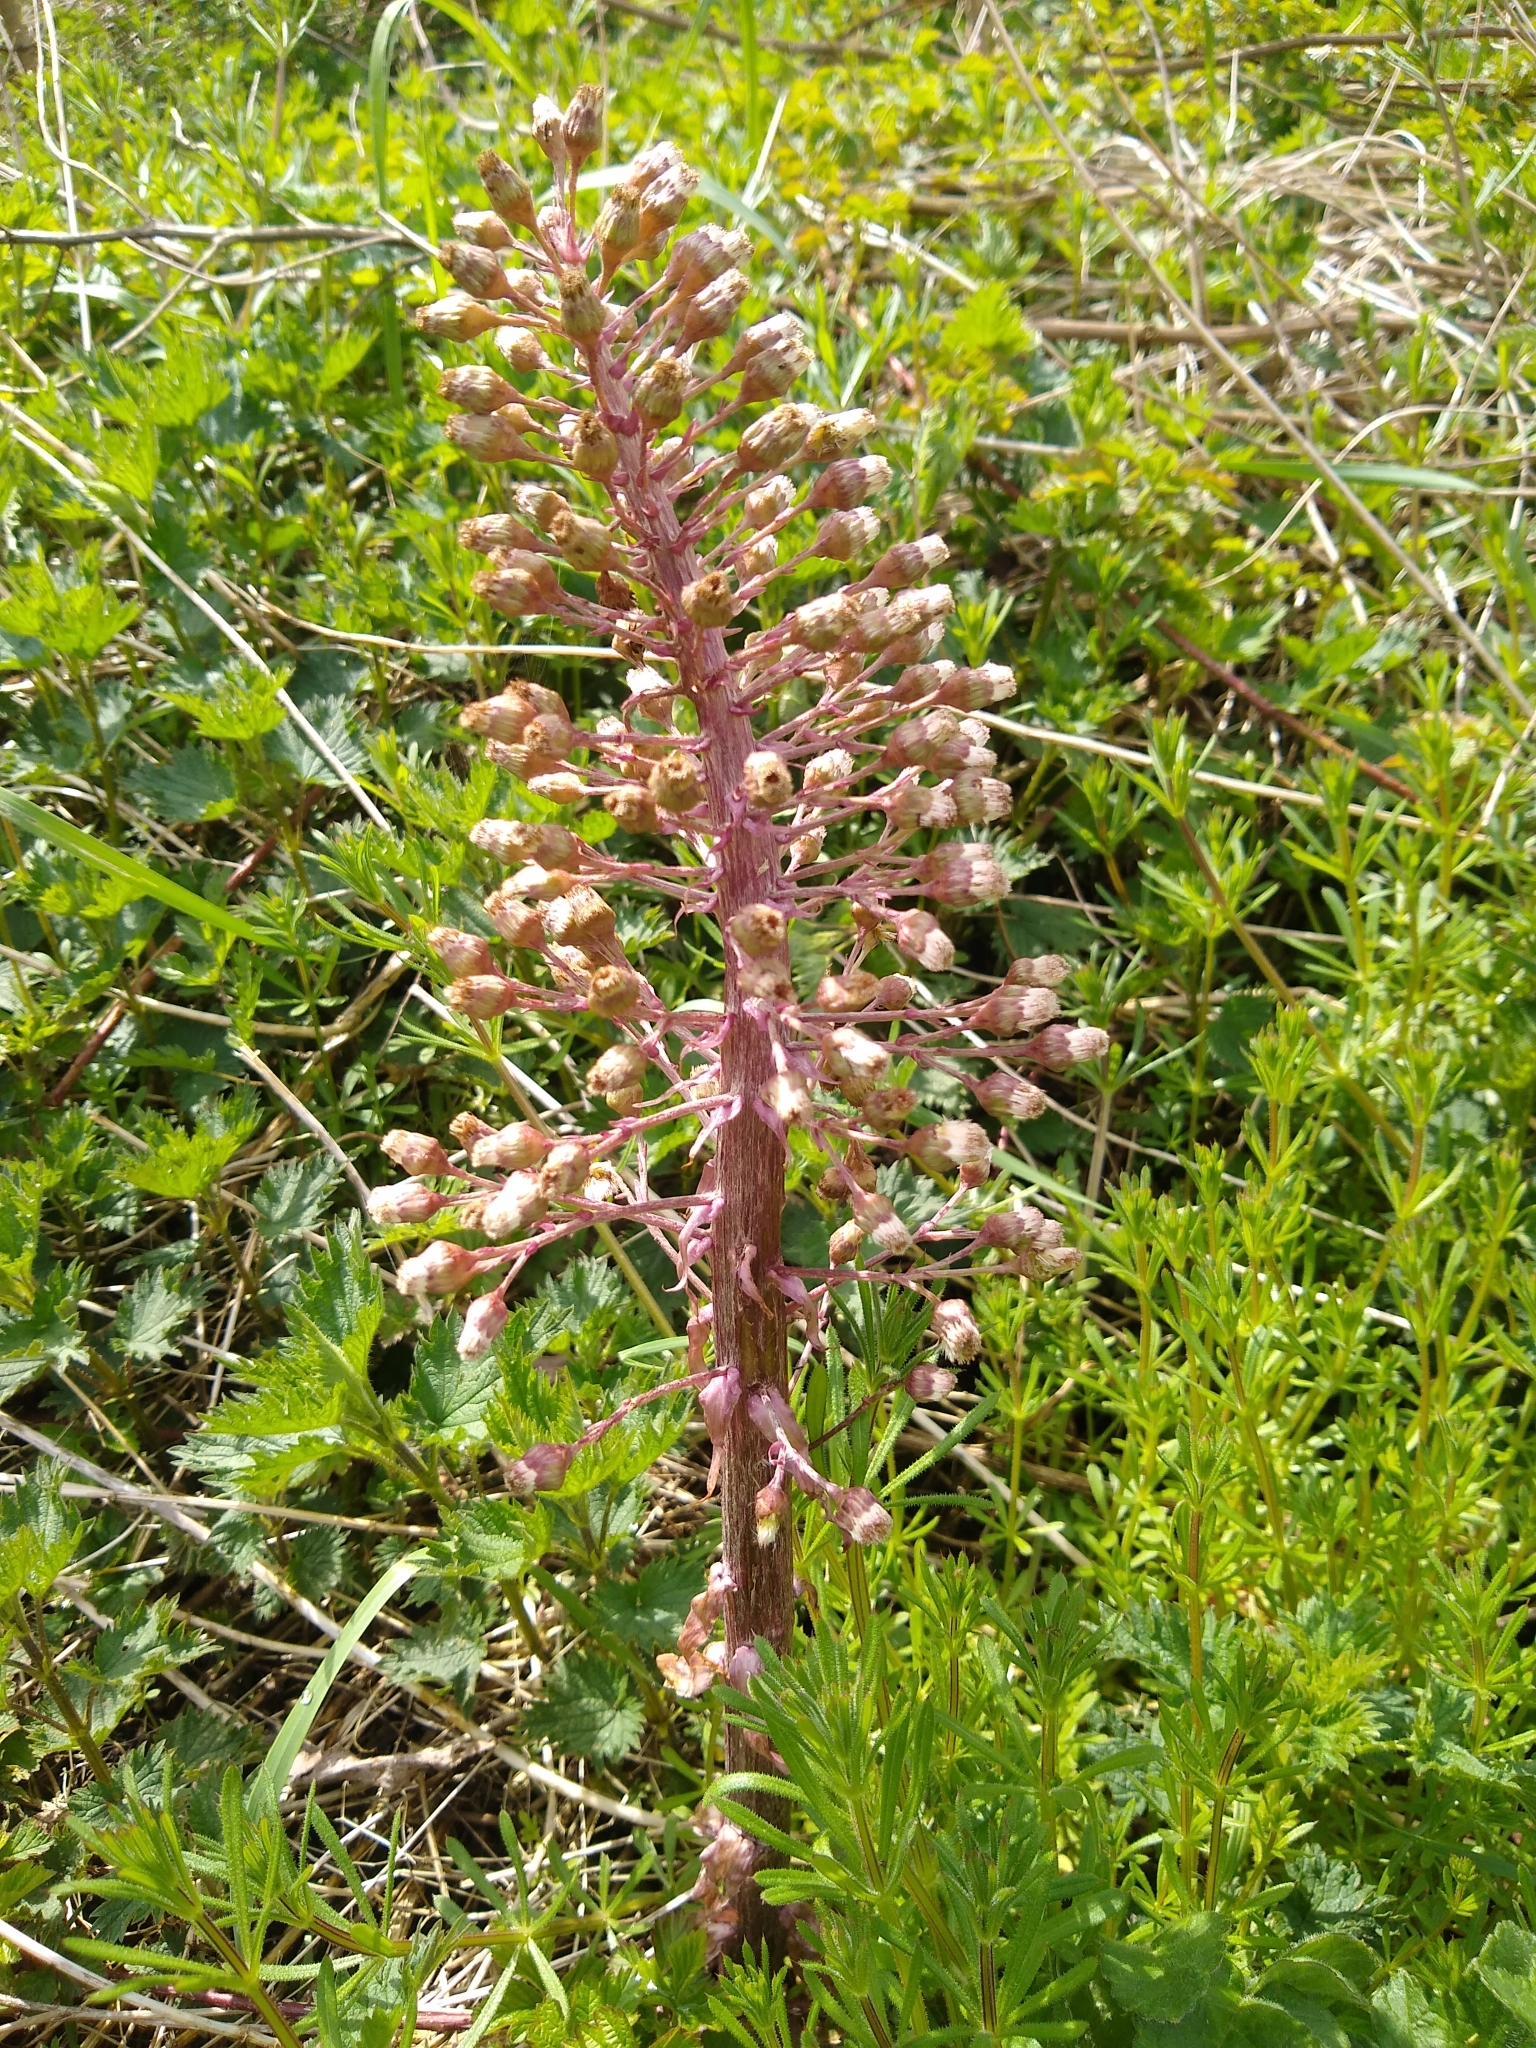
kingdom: Plantae
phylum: Tracheophyta
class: Magnoliopsida
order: Asterales
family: Asteraceae
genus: Petasites
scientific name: Petasites hybridus
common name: Butterbur
